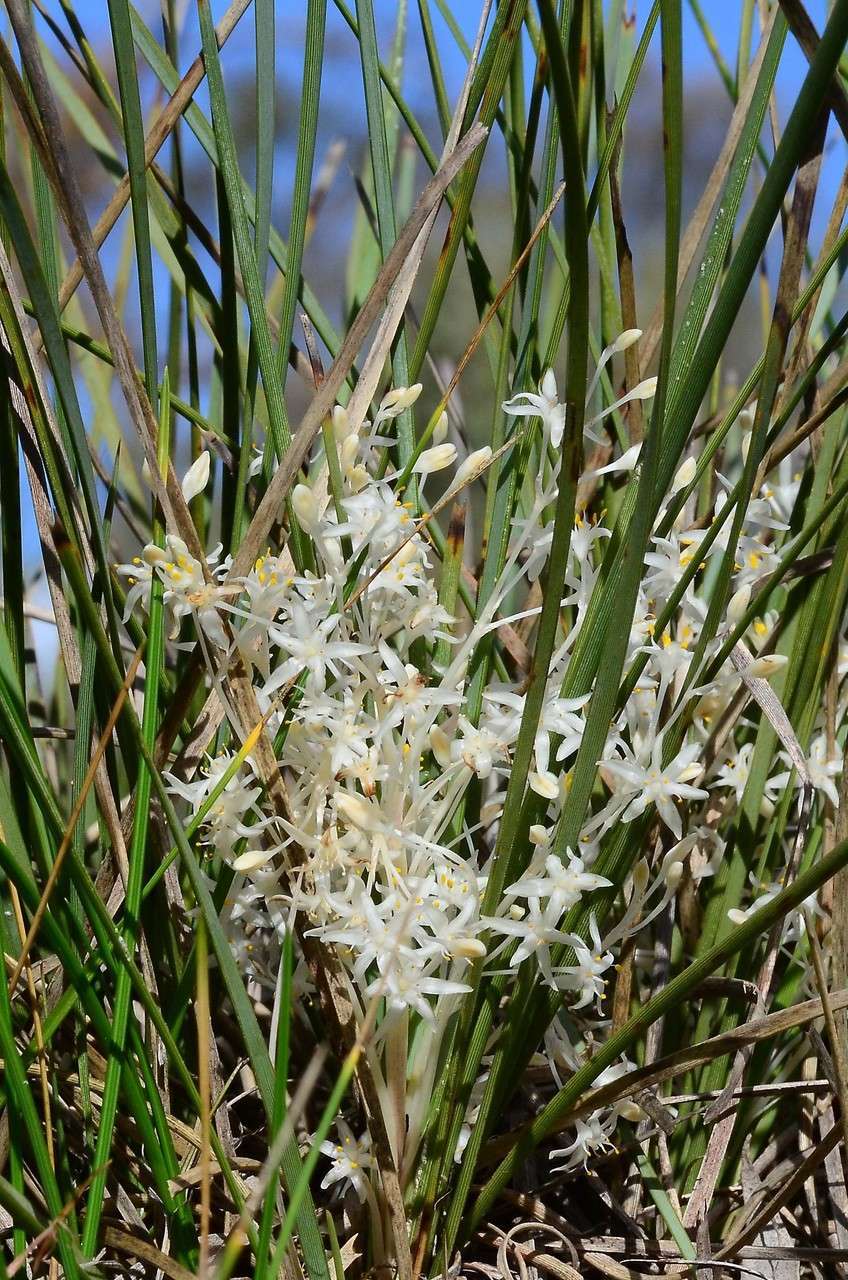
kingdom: Plantae
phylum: Tracheophyta
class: Liliopsida
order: Asparagales
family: Asparagaceae
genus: Lomandra
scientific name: Lomandra effusa
